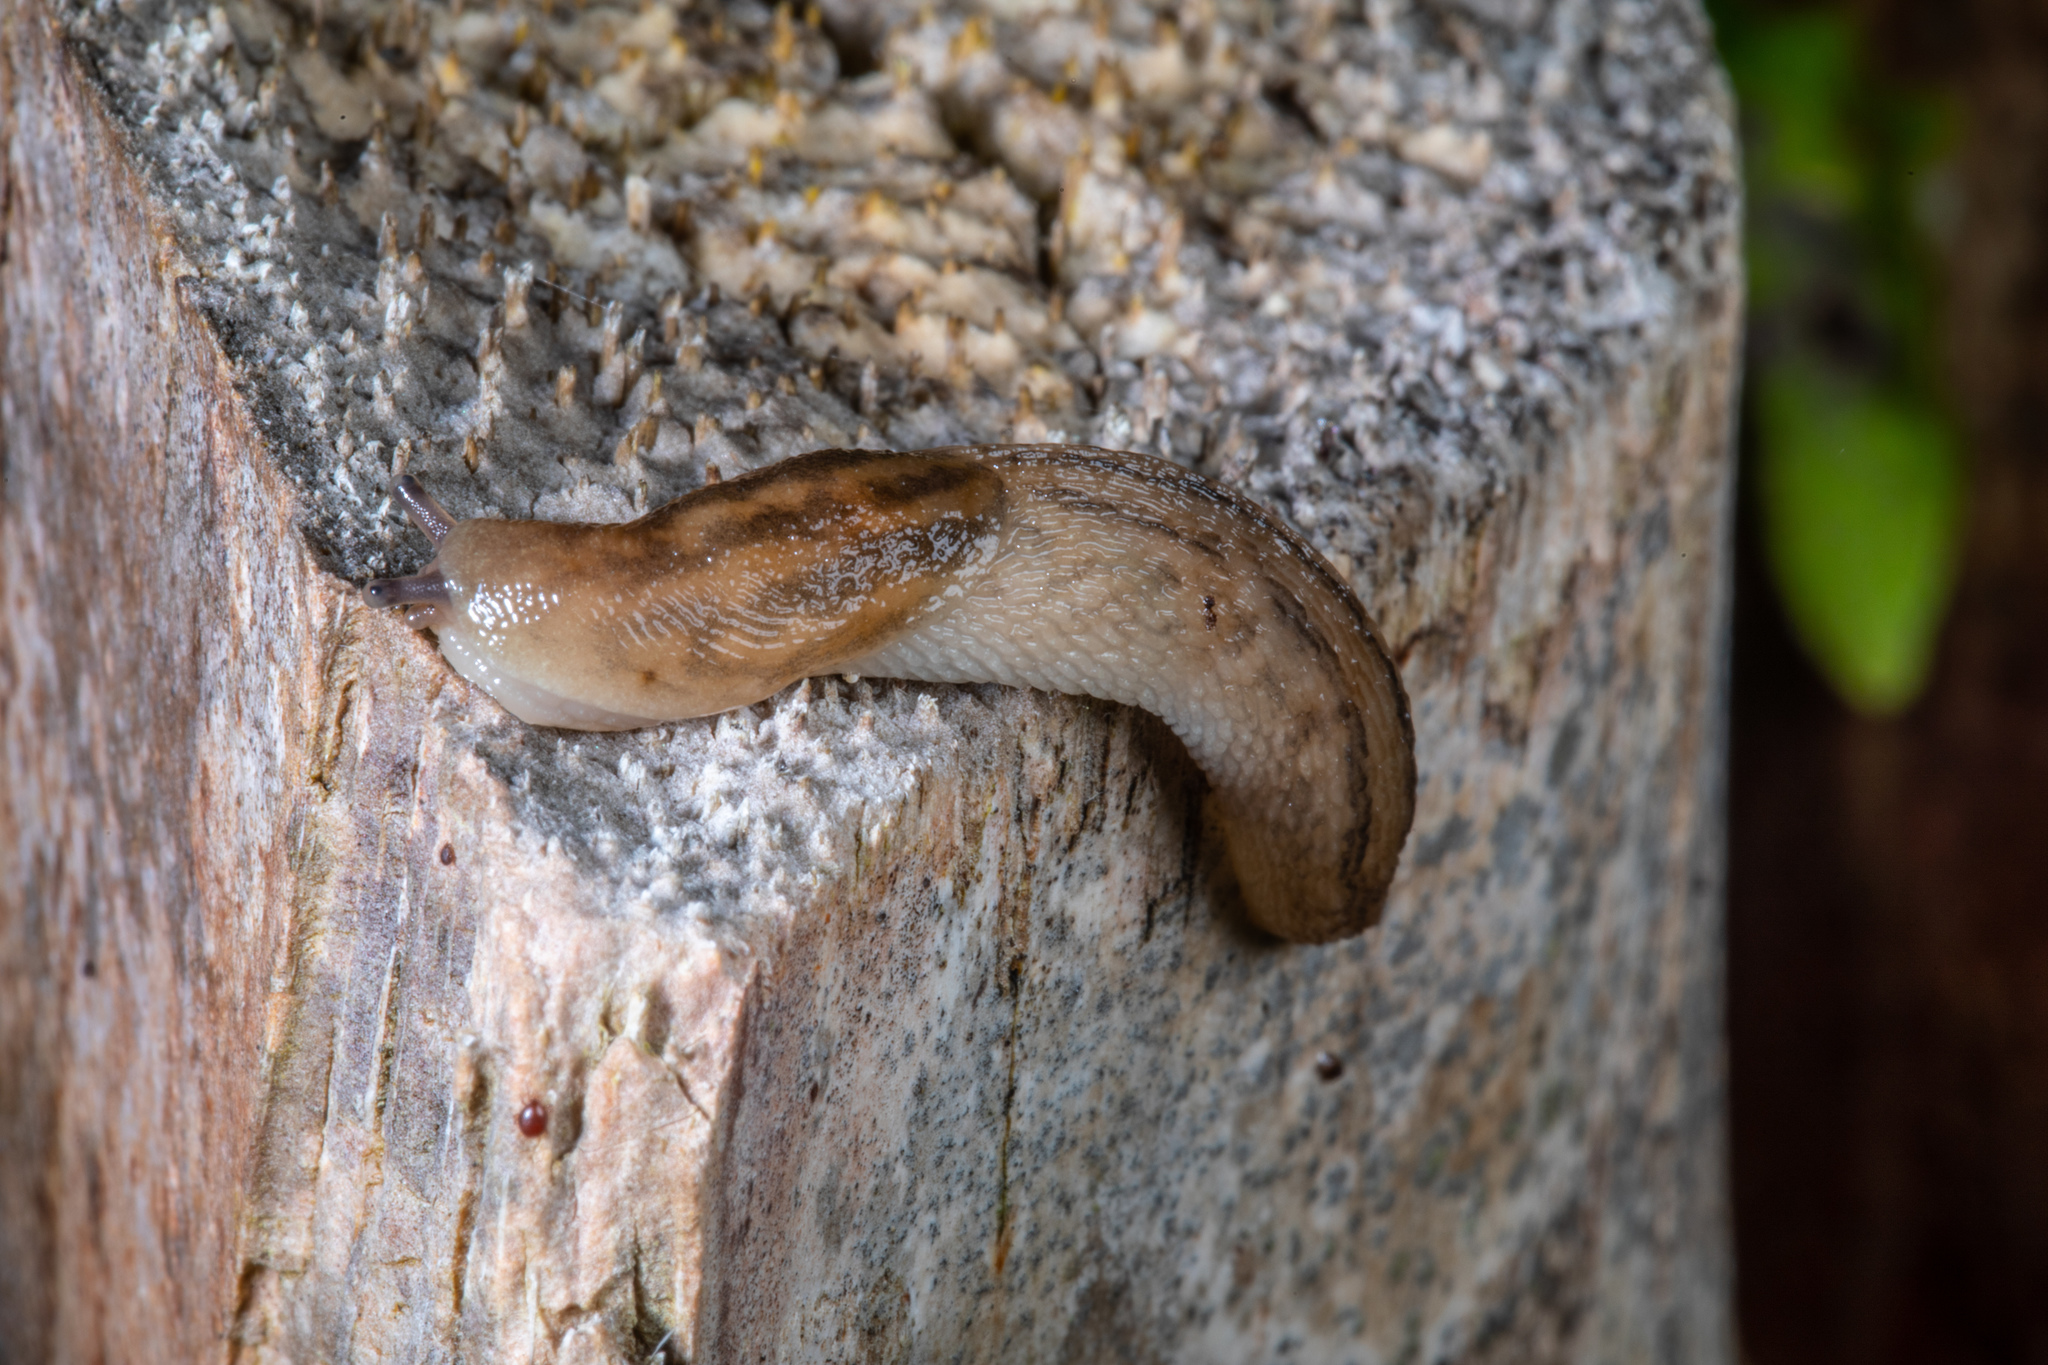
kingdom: Animalia
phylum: Mollusca
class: Gastropoda
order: Stylommatophora
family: Limacidae
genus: Ambigolimax
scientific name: Ambigolimax
